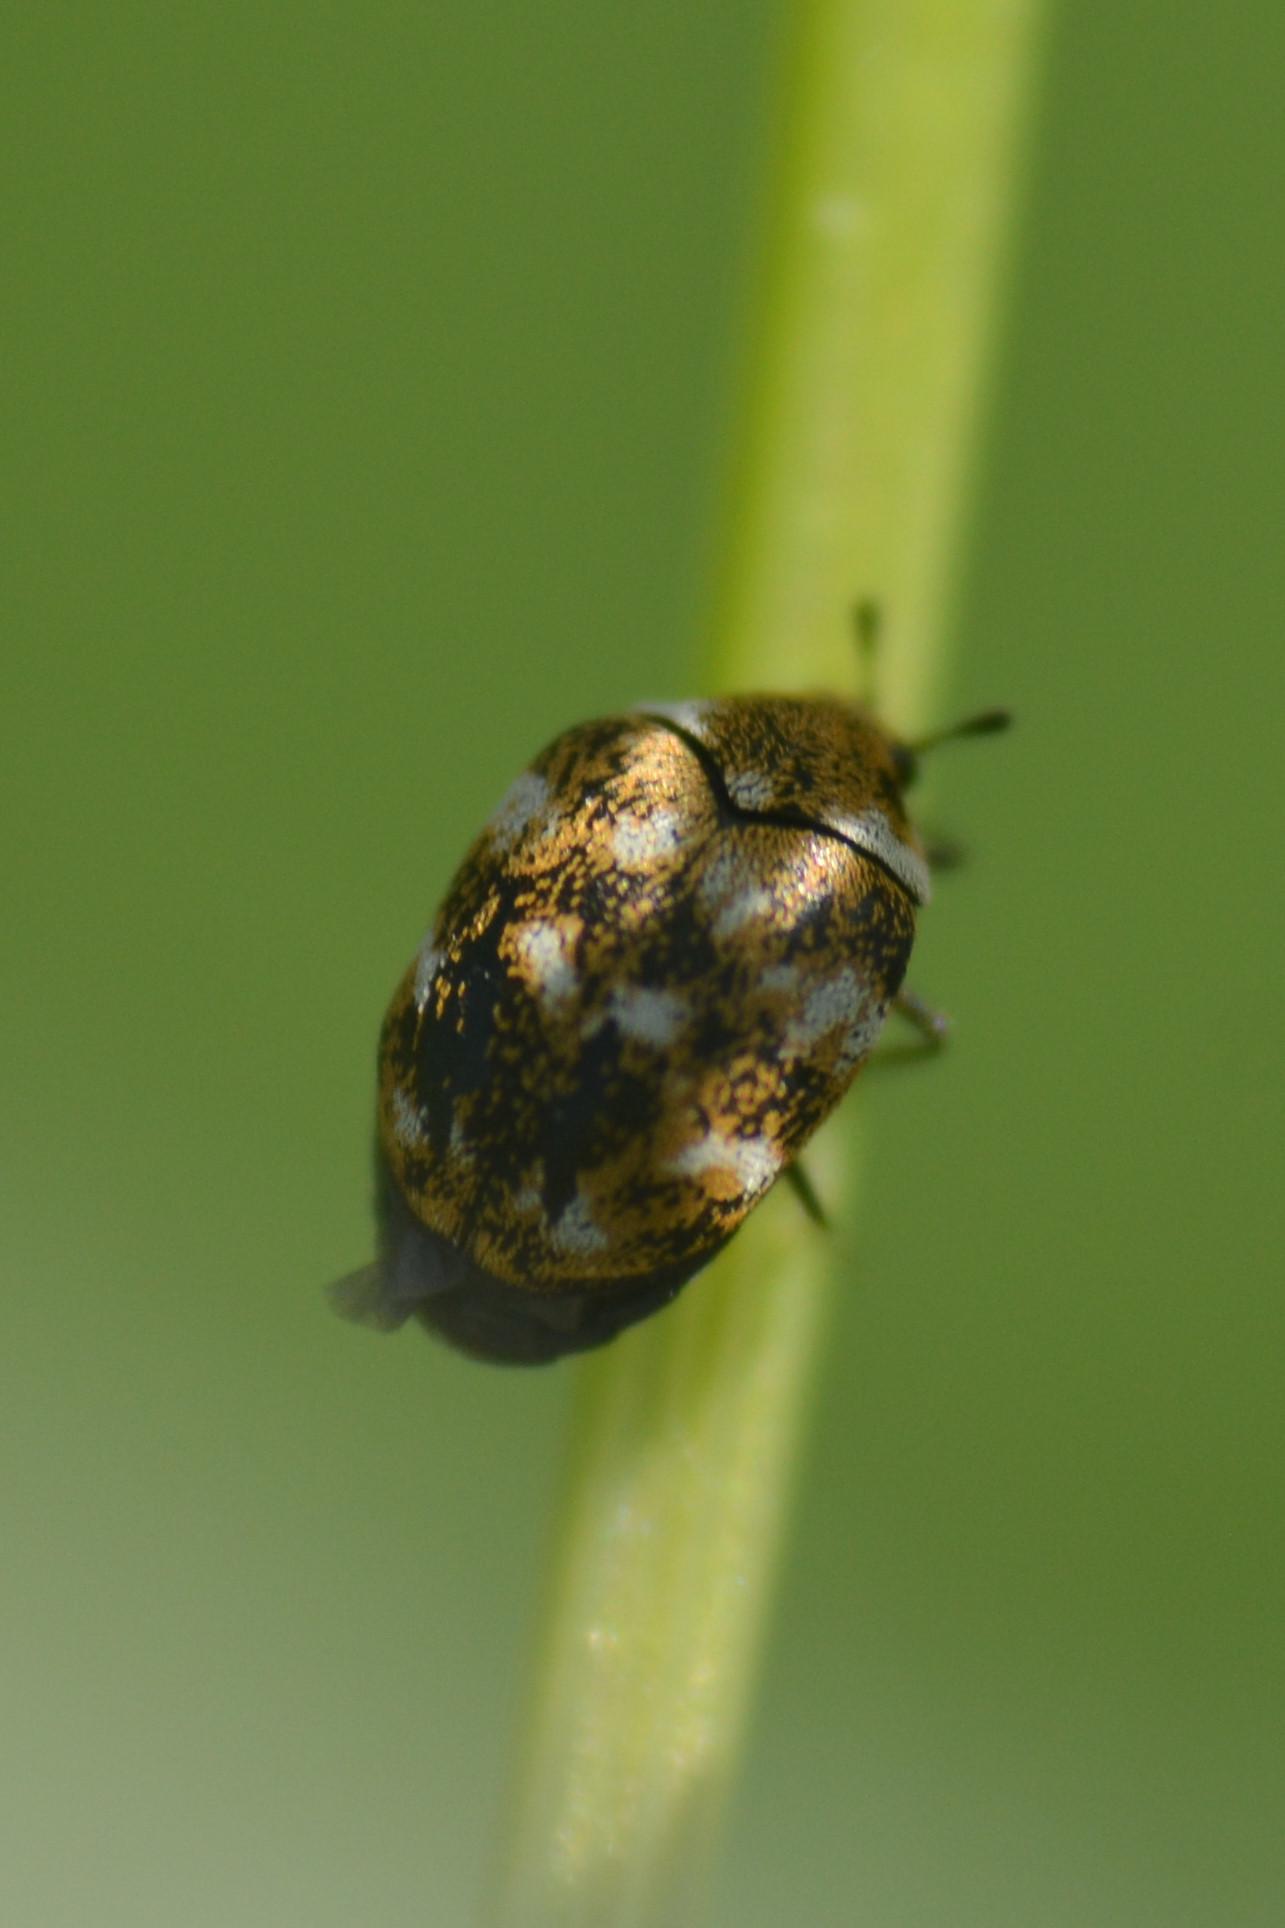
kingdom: Animalia
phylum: Arthropoda
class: Insecta
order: Coleoptera
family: Dermestidae
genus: Anthrenus
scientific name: Anthrenus verbasci
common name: Varied carpet beetle
